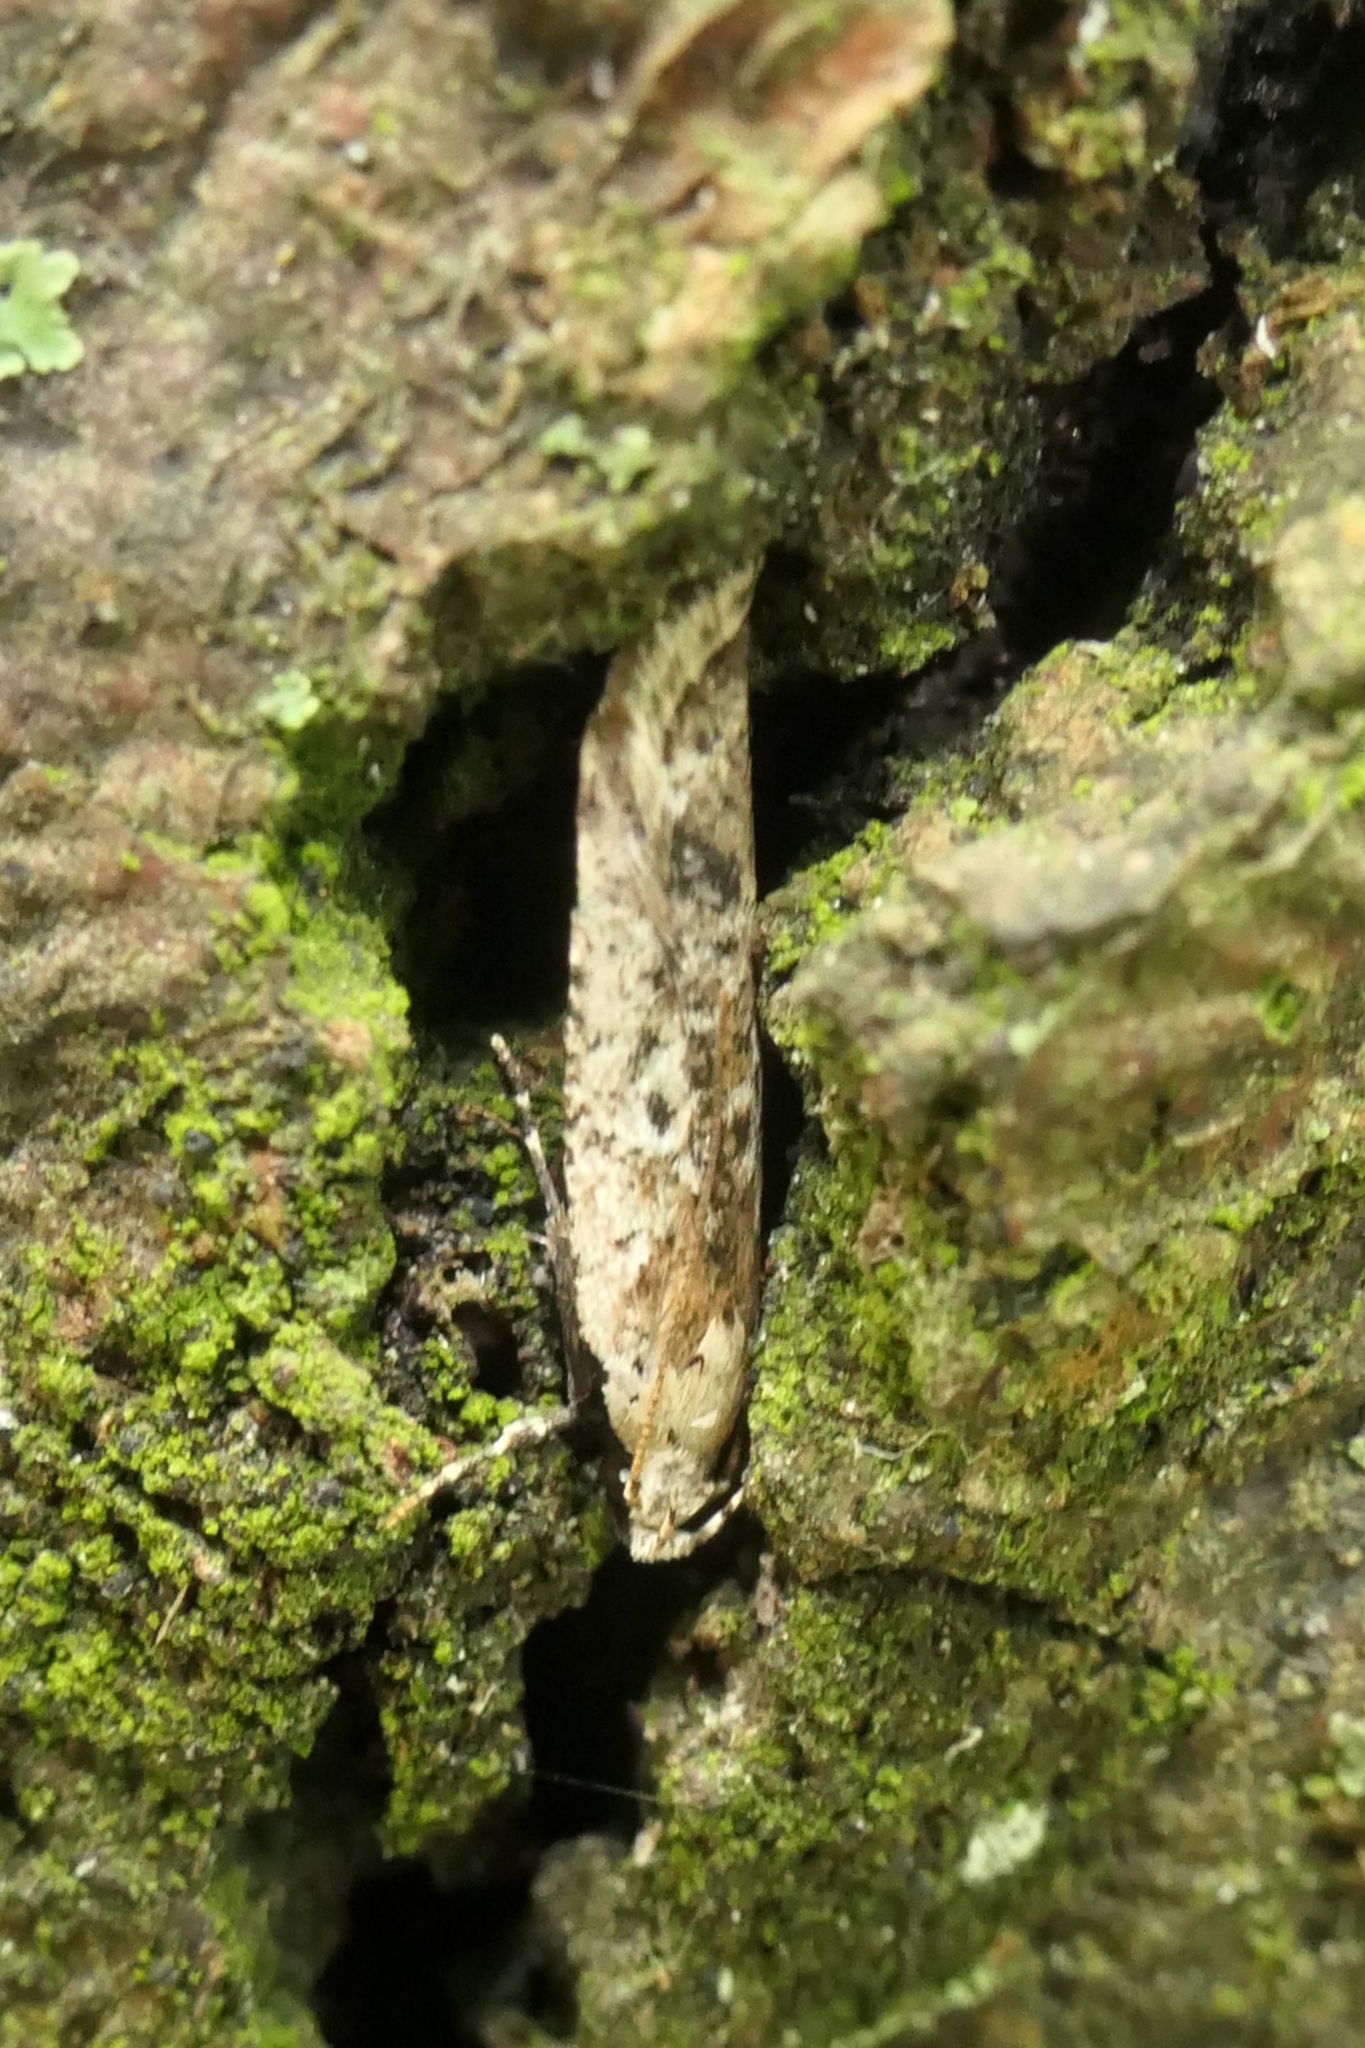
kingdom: Animalia
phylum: Arthropoda
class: Insecta
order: Lepidoptera
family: Gelechiidae
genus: Anisoplaca
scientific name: Anisoplaca achyrota
